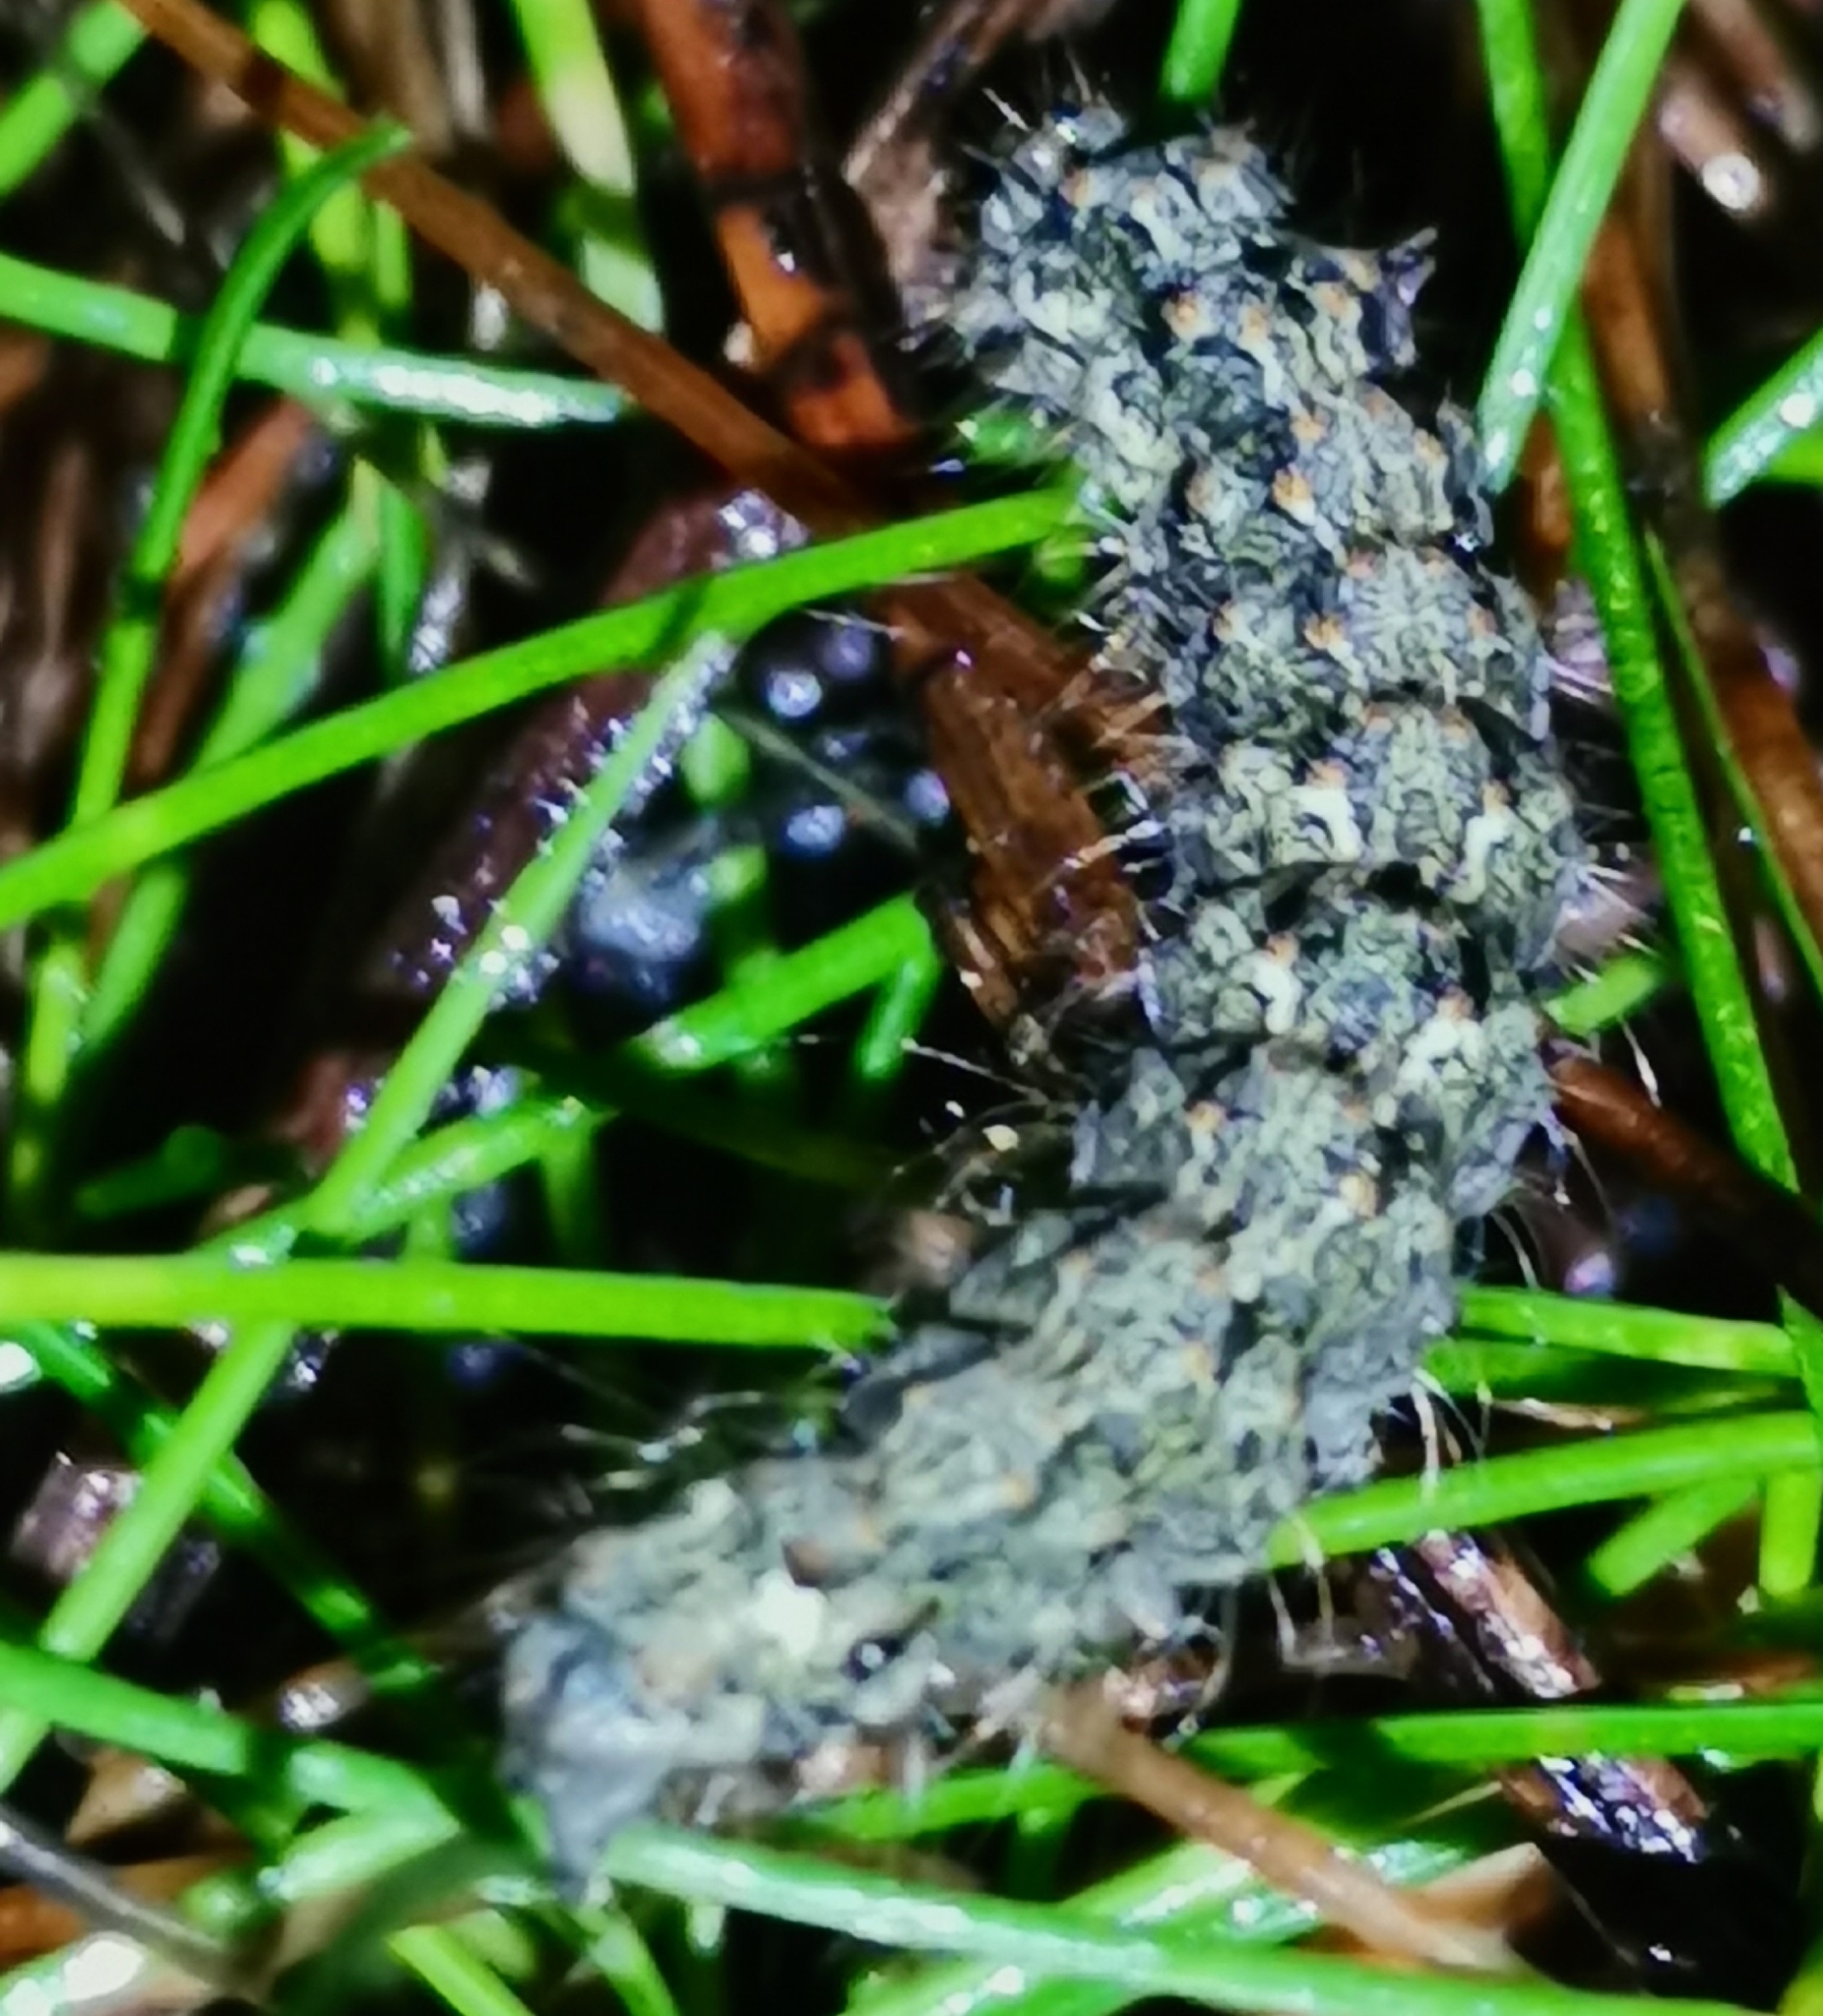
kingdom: Animalia
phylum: Arthropoda
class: Insecta
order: Lepidoptera
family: Erebidae
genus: Atolmis
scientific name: Atolmis rubricollis
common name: Red-necked footman
